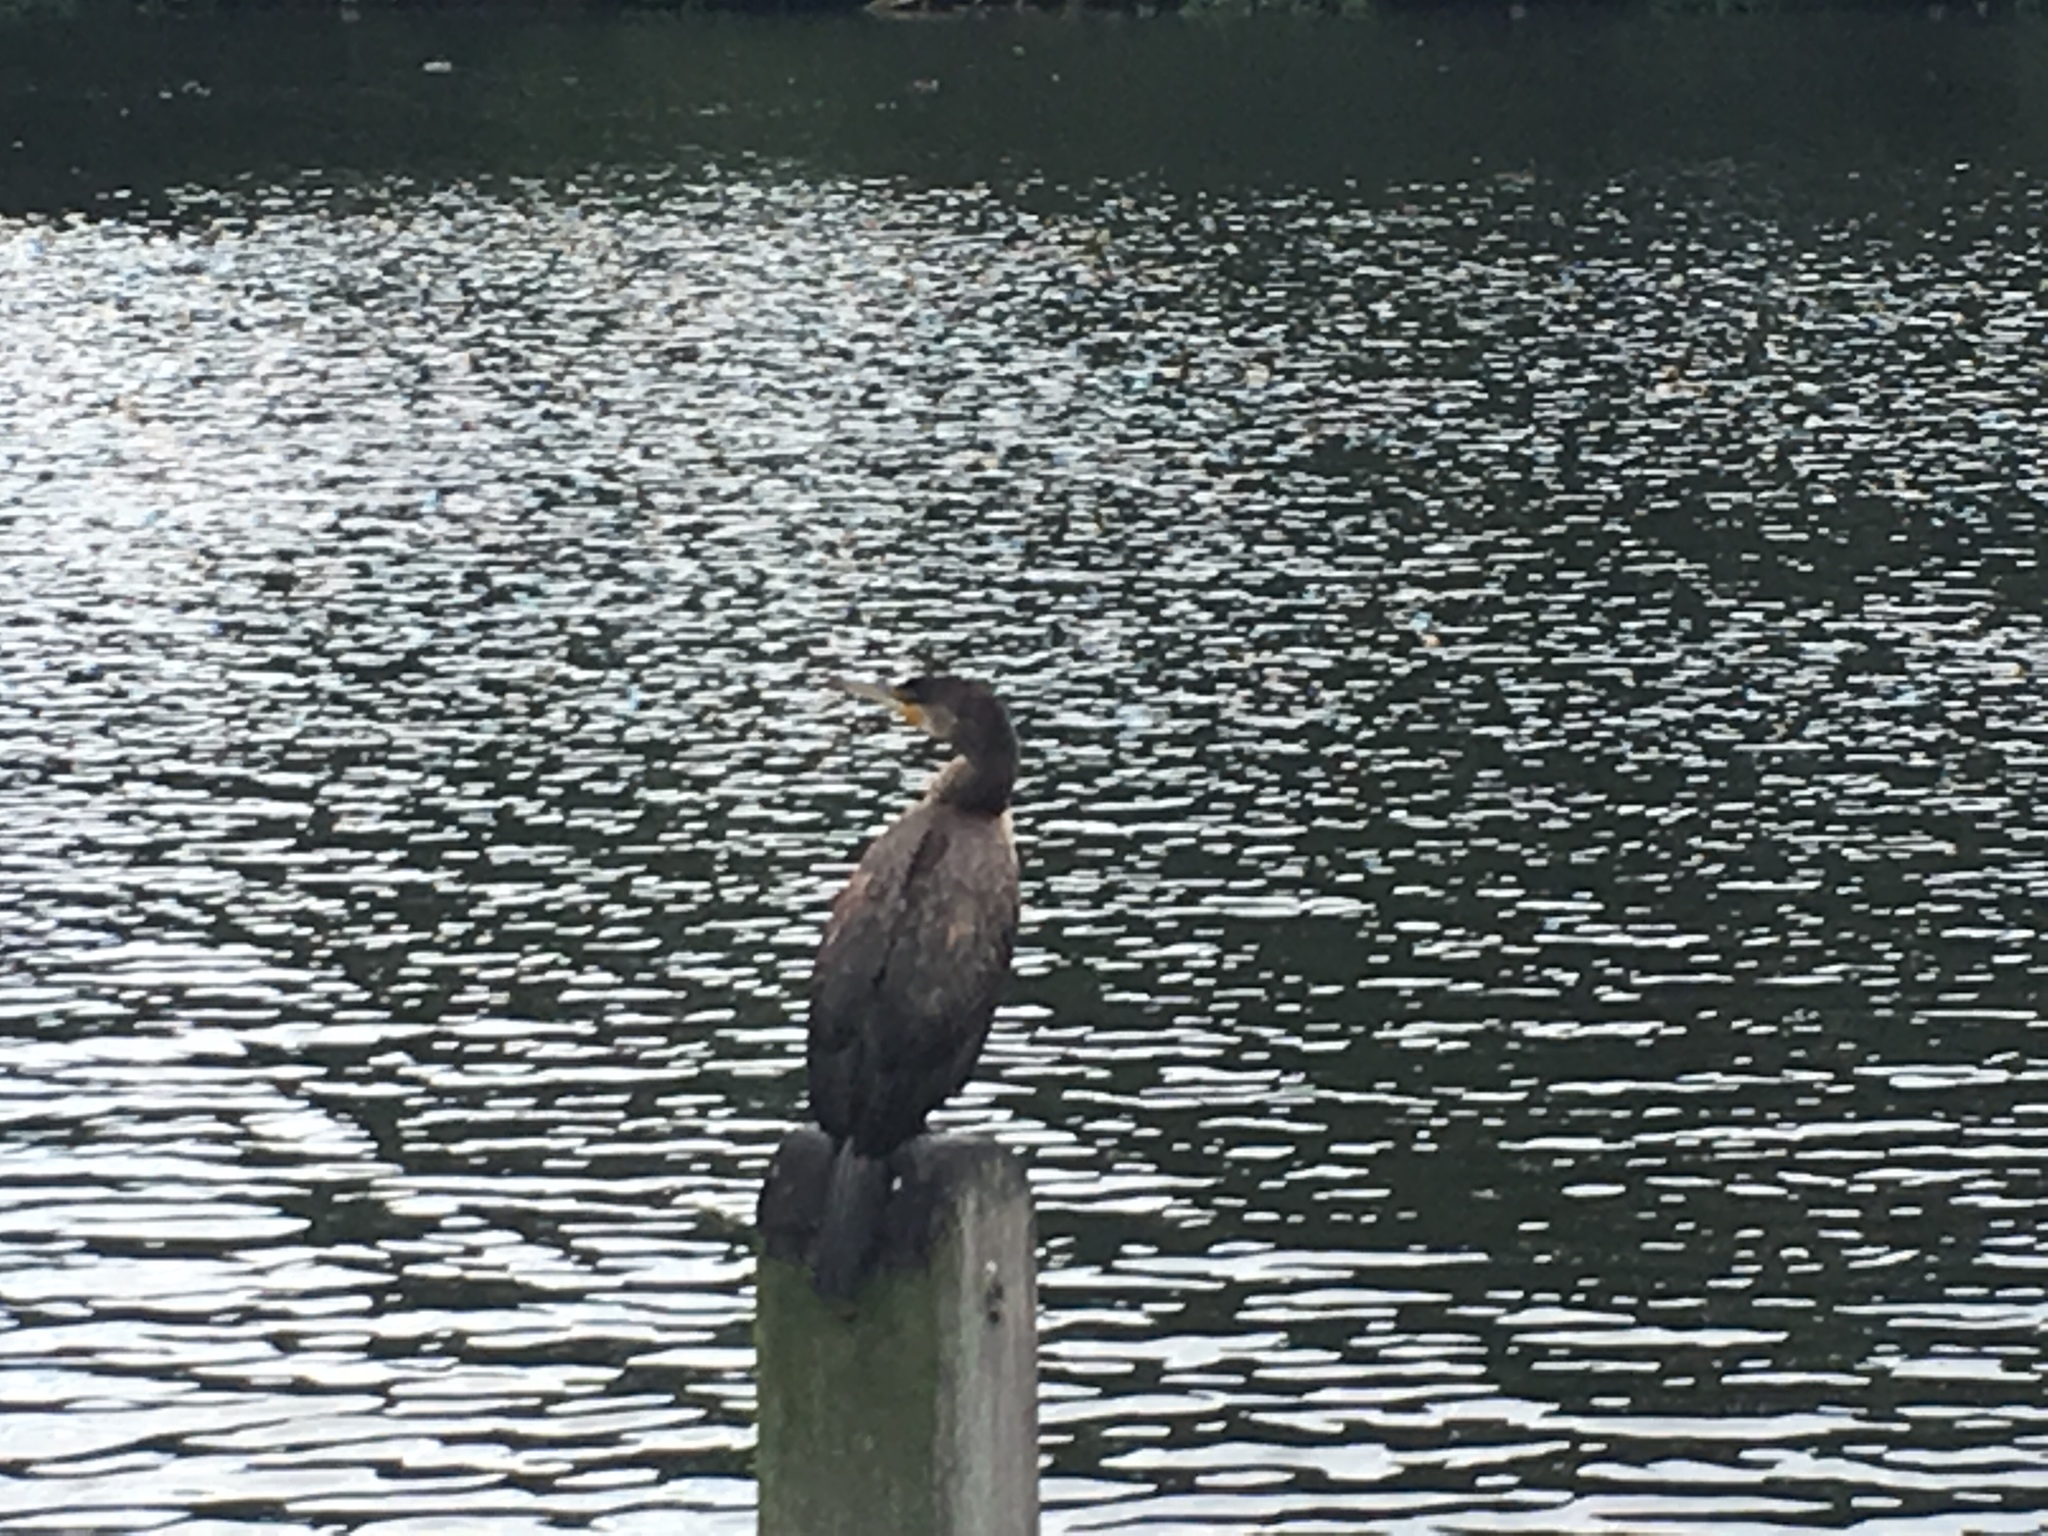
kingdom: Animalia
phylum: Chordata
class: Aves
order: Suliformes
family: Phalacrocoracidae
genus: Phalacrocorax
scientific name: Phalacrocorax carbo
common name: Great cormorant
